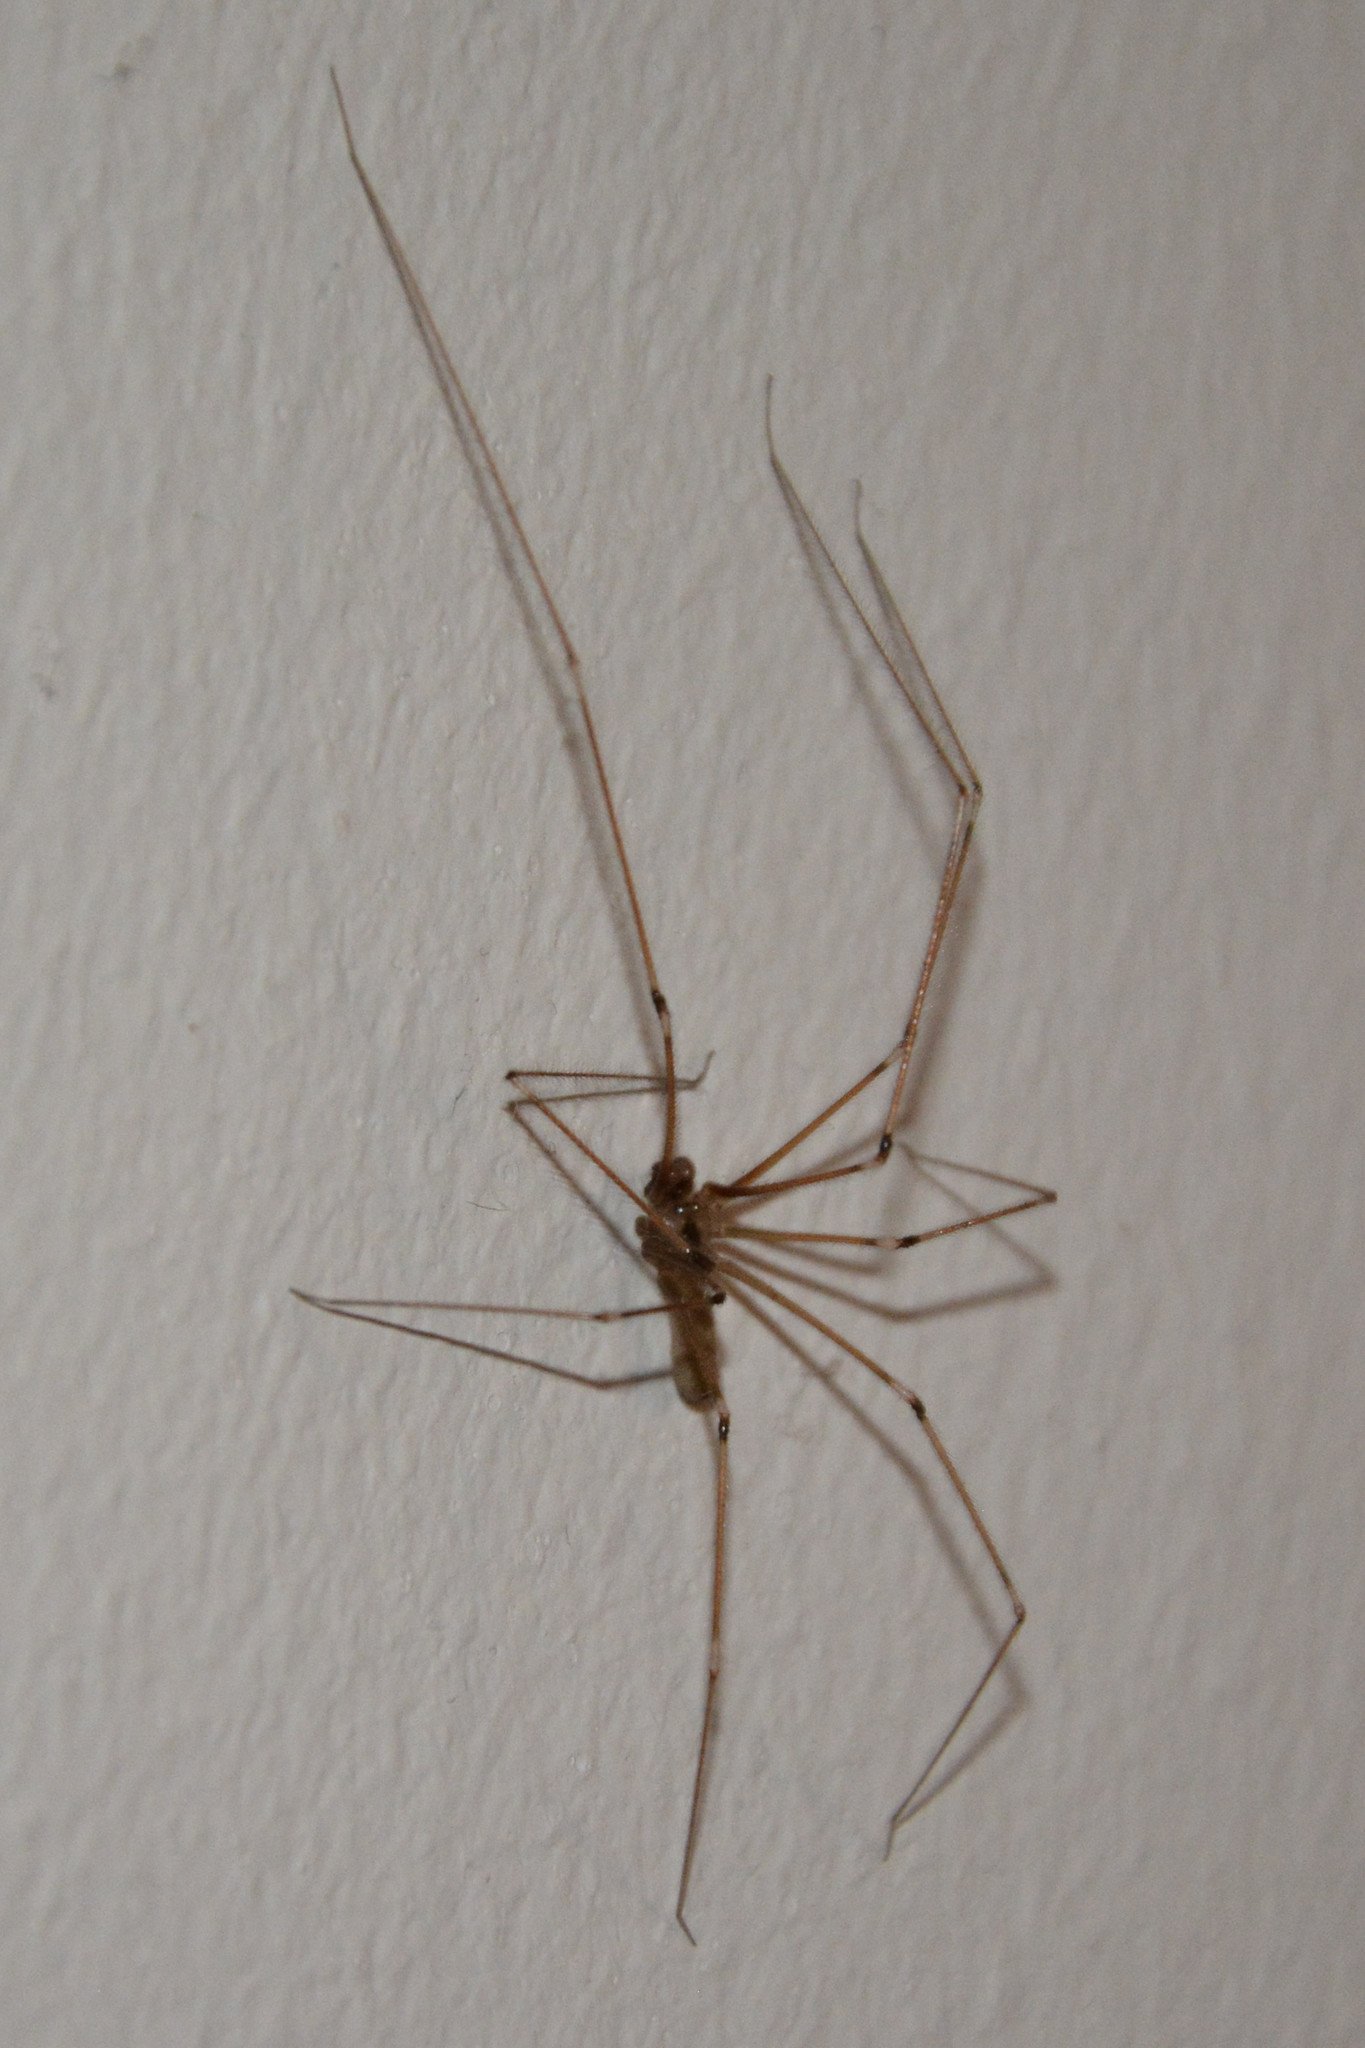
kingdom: Animalia
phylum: Arthropoda
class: Arachnida
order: Araneae
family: Pholcidae
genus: Pholcus
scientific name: Pholcus phalangioides
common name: Longbodied cellar spider
